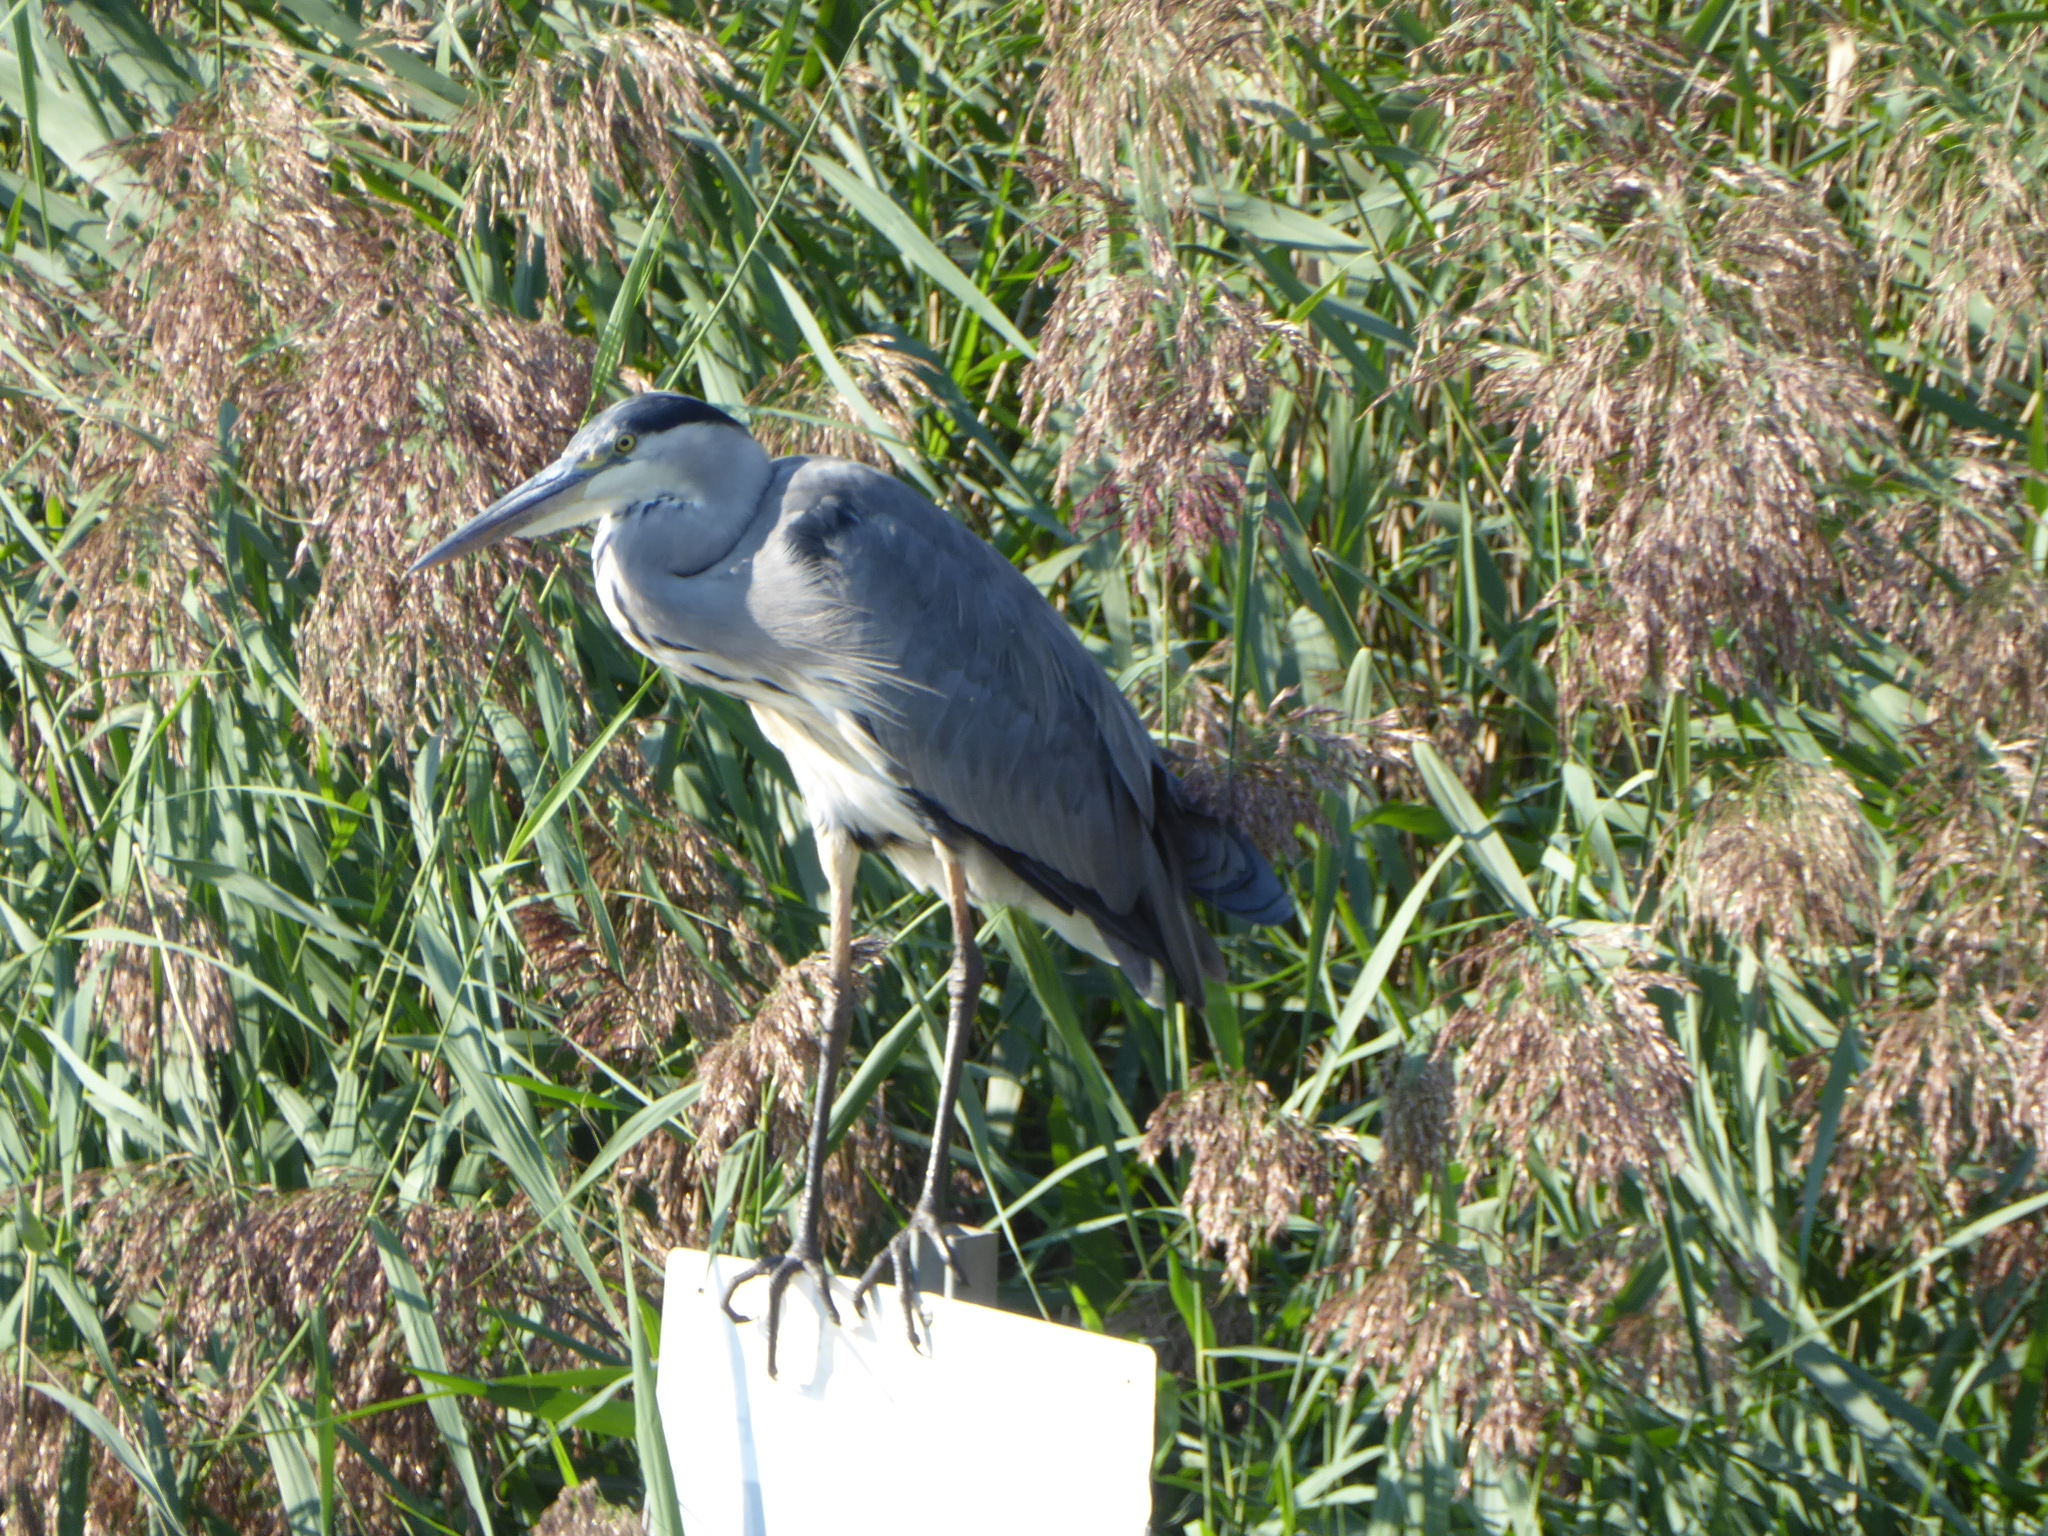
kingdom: Animalia
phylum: Chordata
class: Aves
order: Pelecaniformes
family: Ardeidae
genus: Ardea
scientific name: Ardea cinerea
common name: Grey heron
